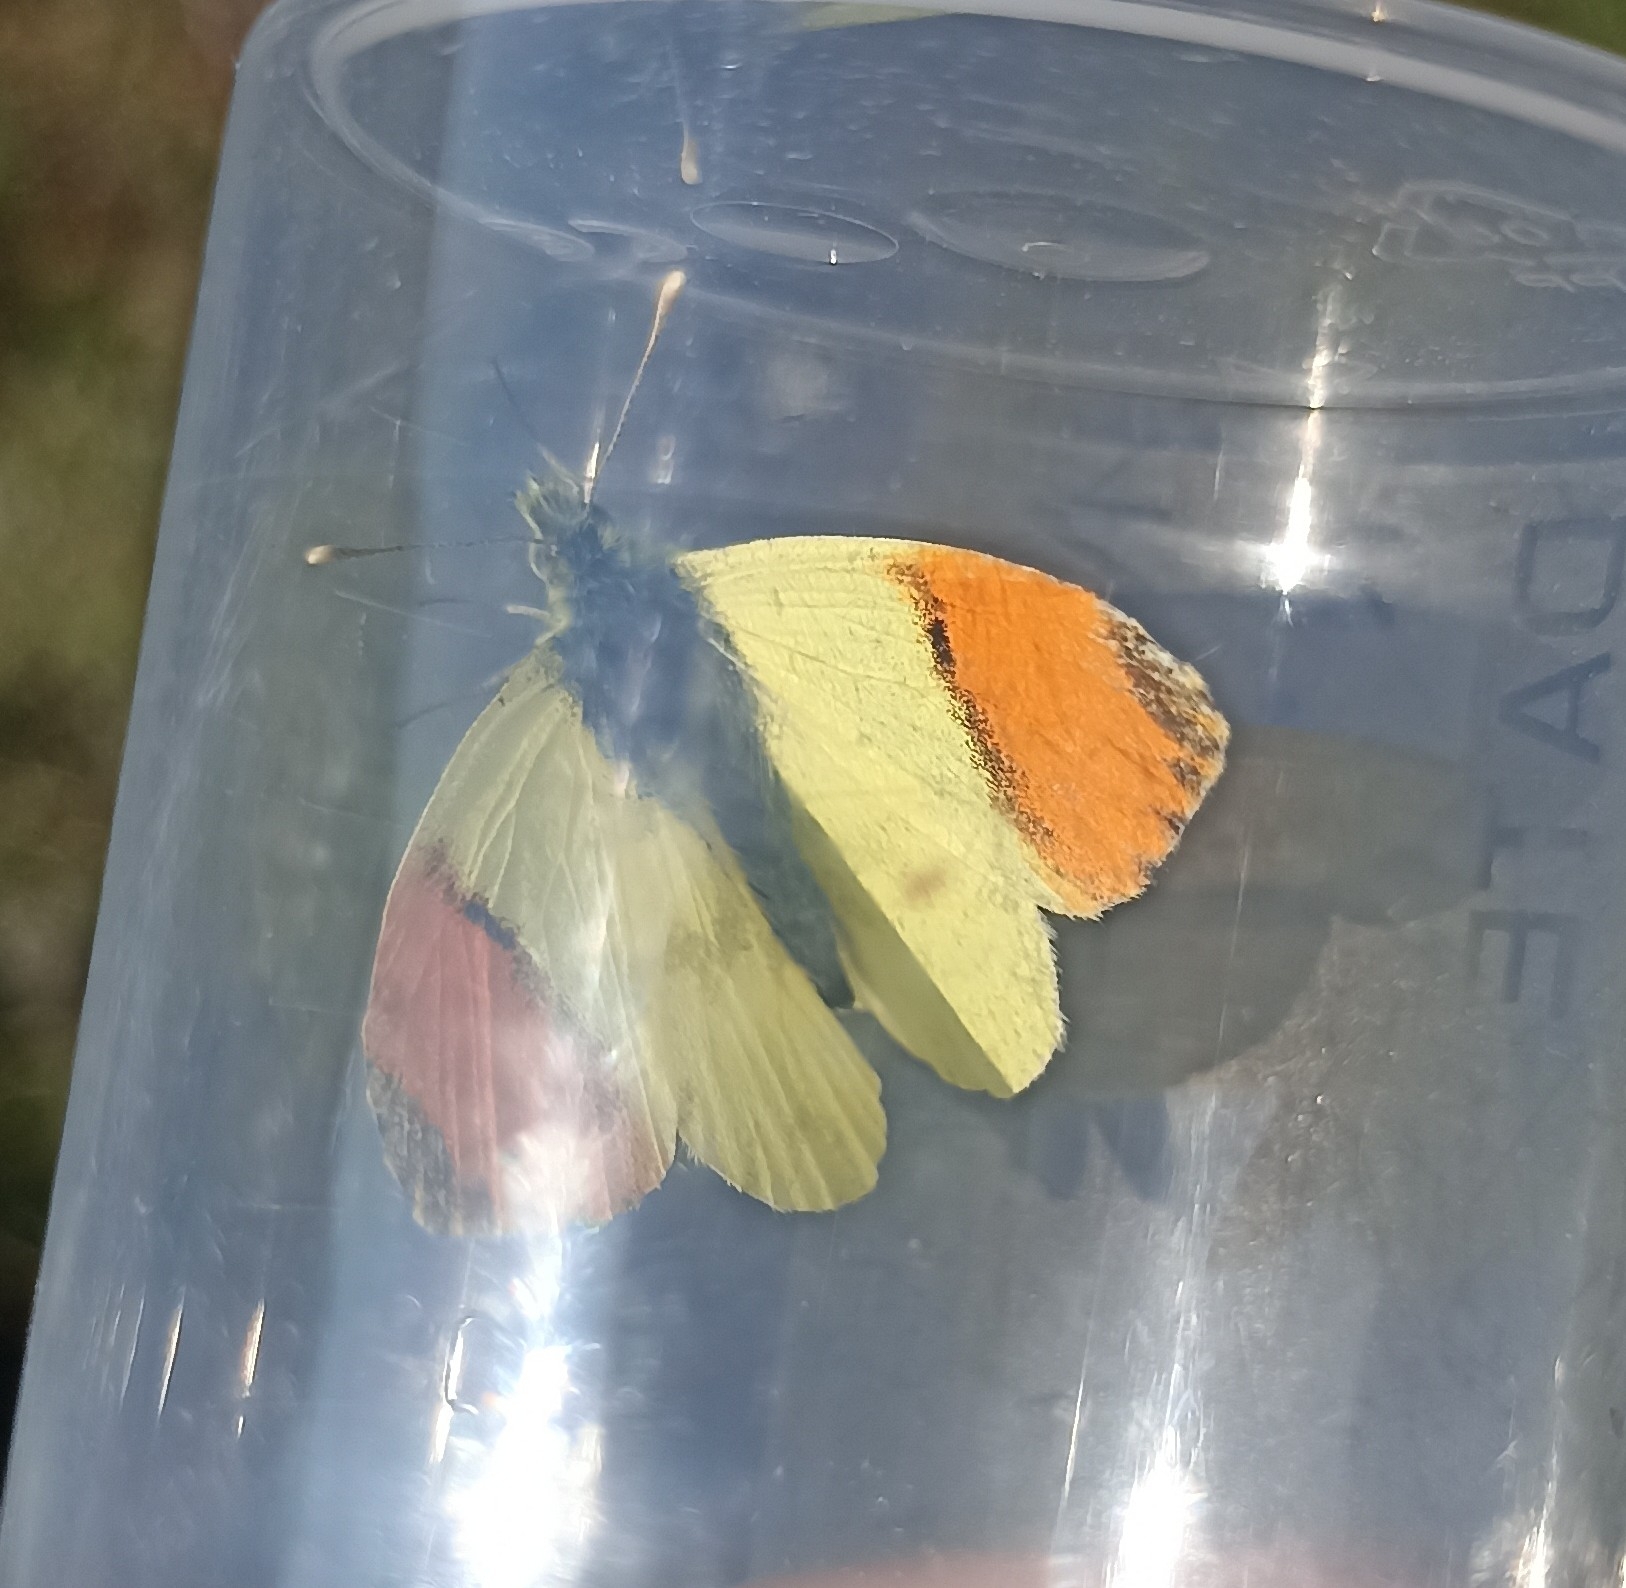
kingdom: Animalia
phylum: Arthropoda
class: Insecta
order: Lepidoptera
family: Pieridae
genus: Anthocharis
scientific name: Anthocharis euphenoides
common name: Provence orange-tip
